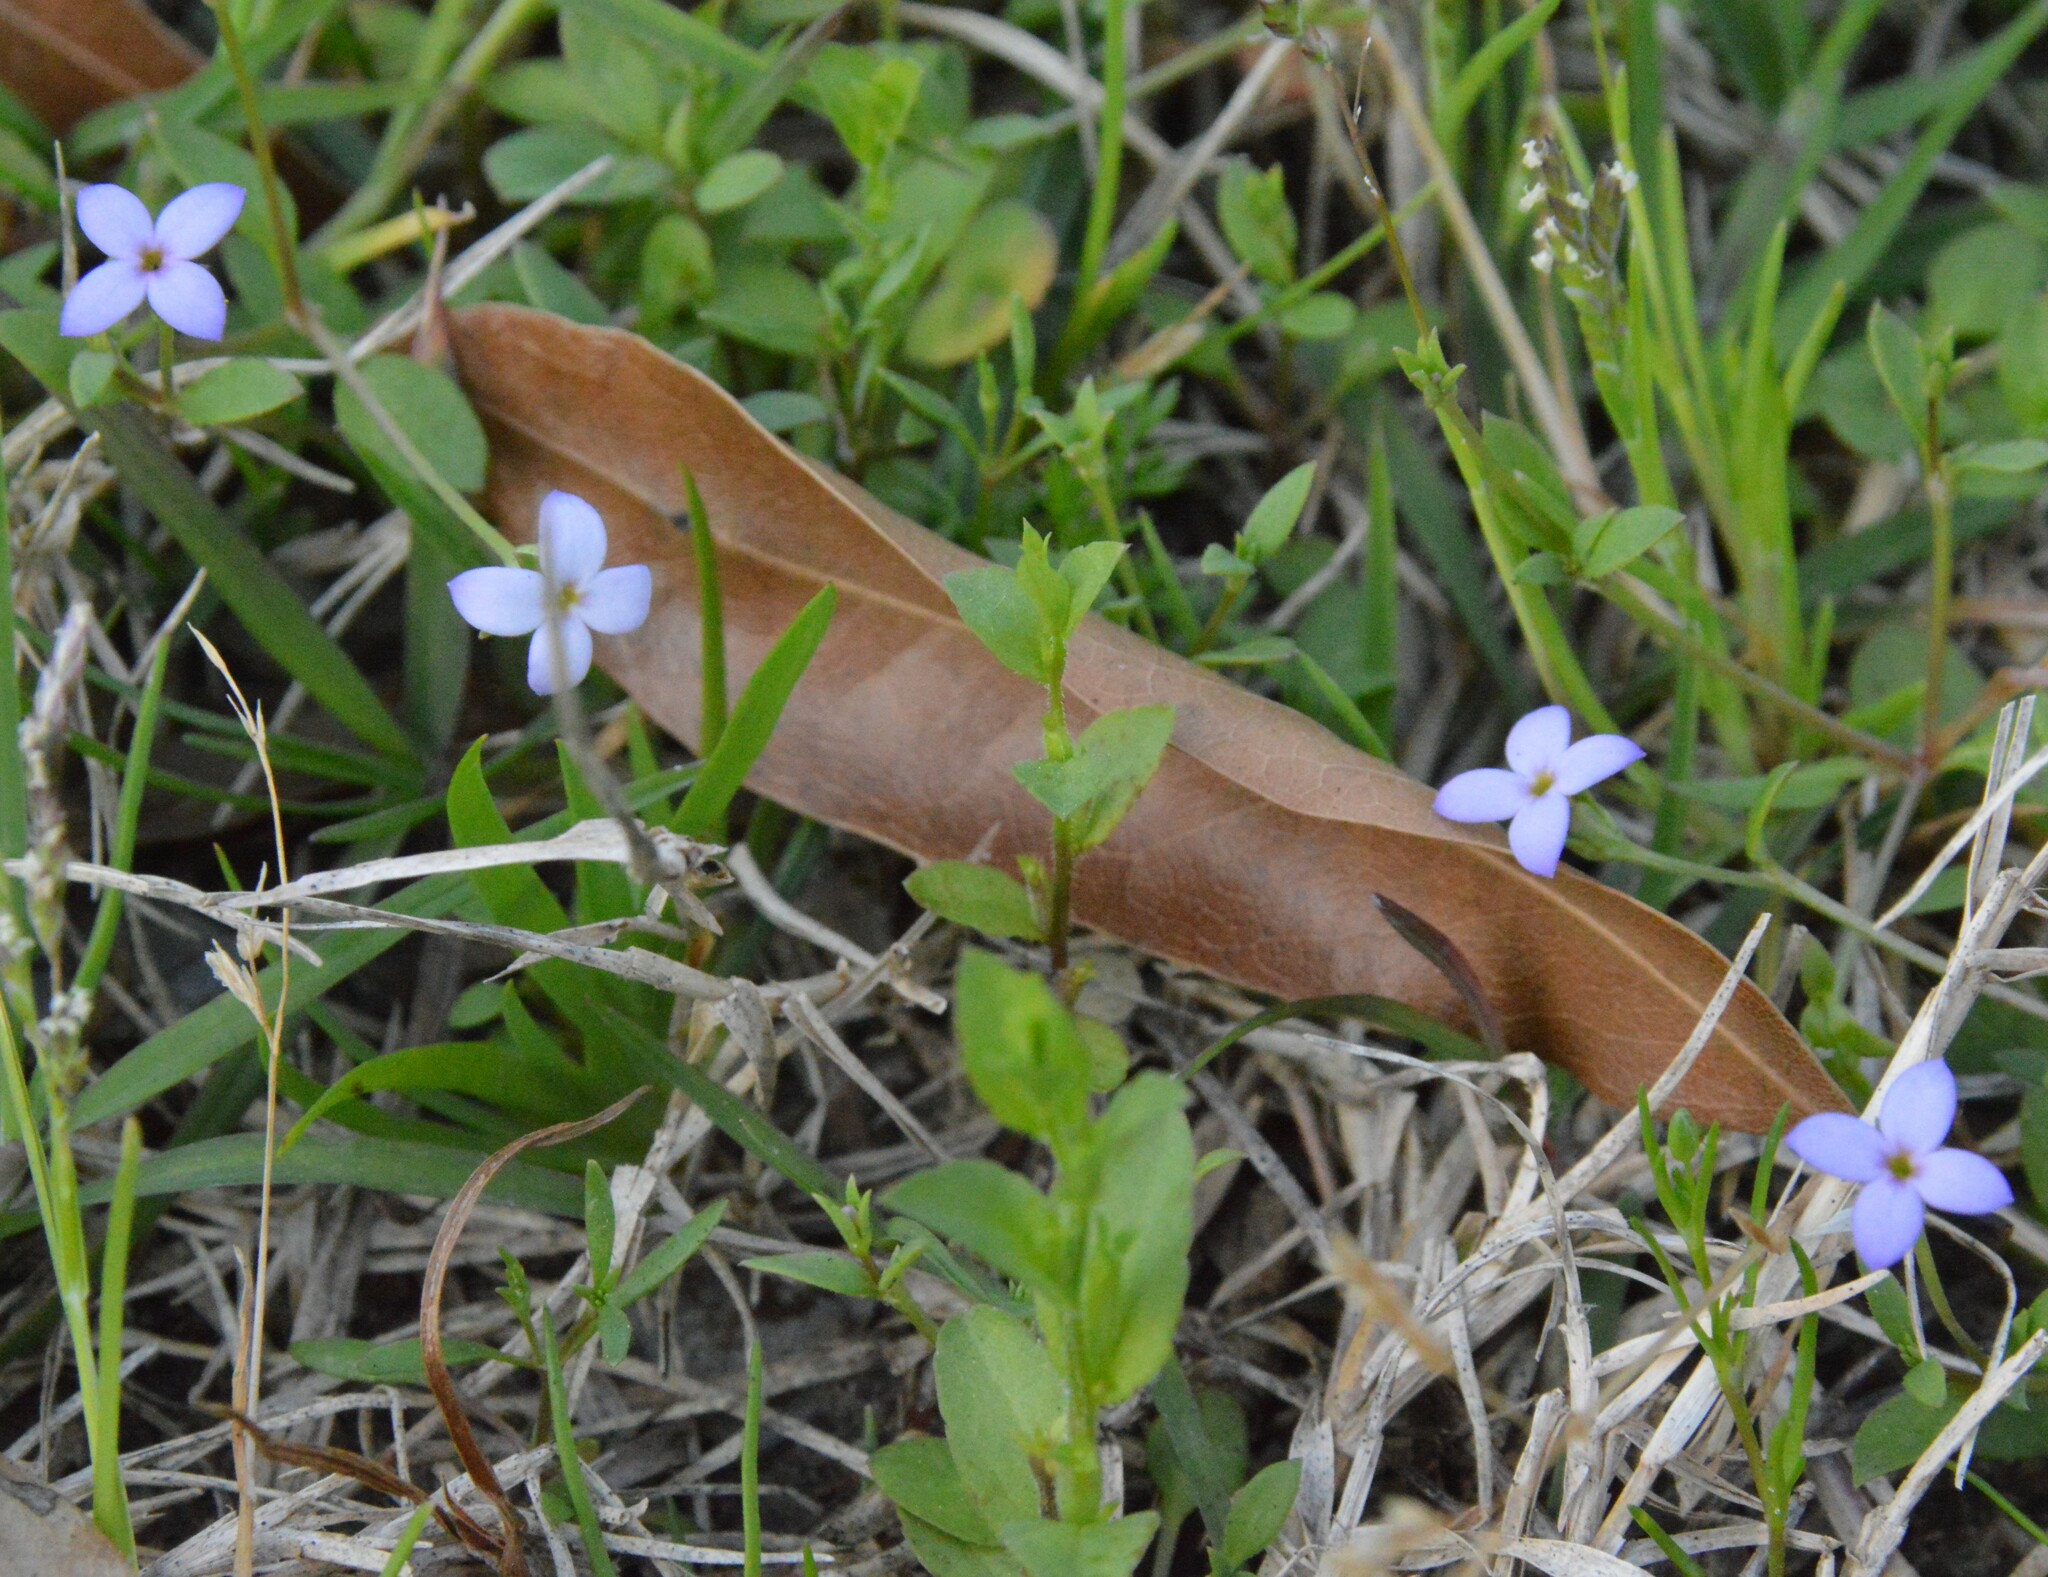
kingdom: Plantae
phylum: Tracheophyta
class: Magnoliopsida
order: Gentianales
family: Rubiaceae
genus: Houstonia
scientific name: Houstonia pusilla
